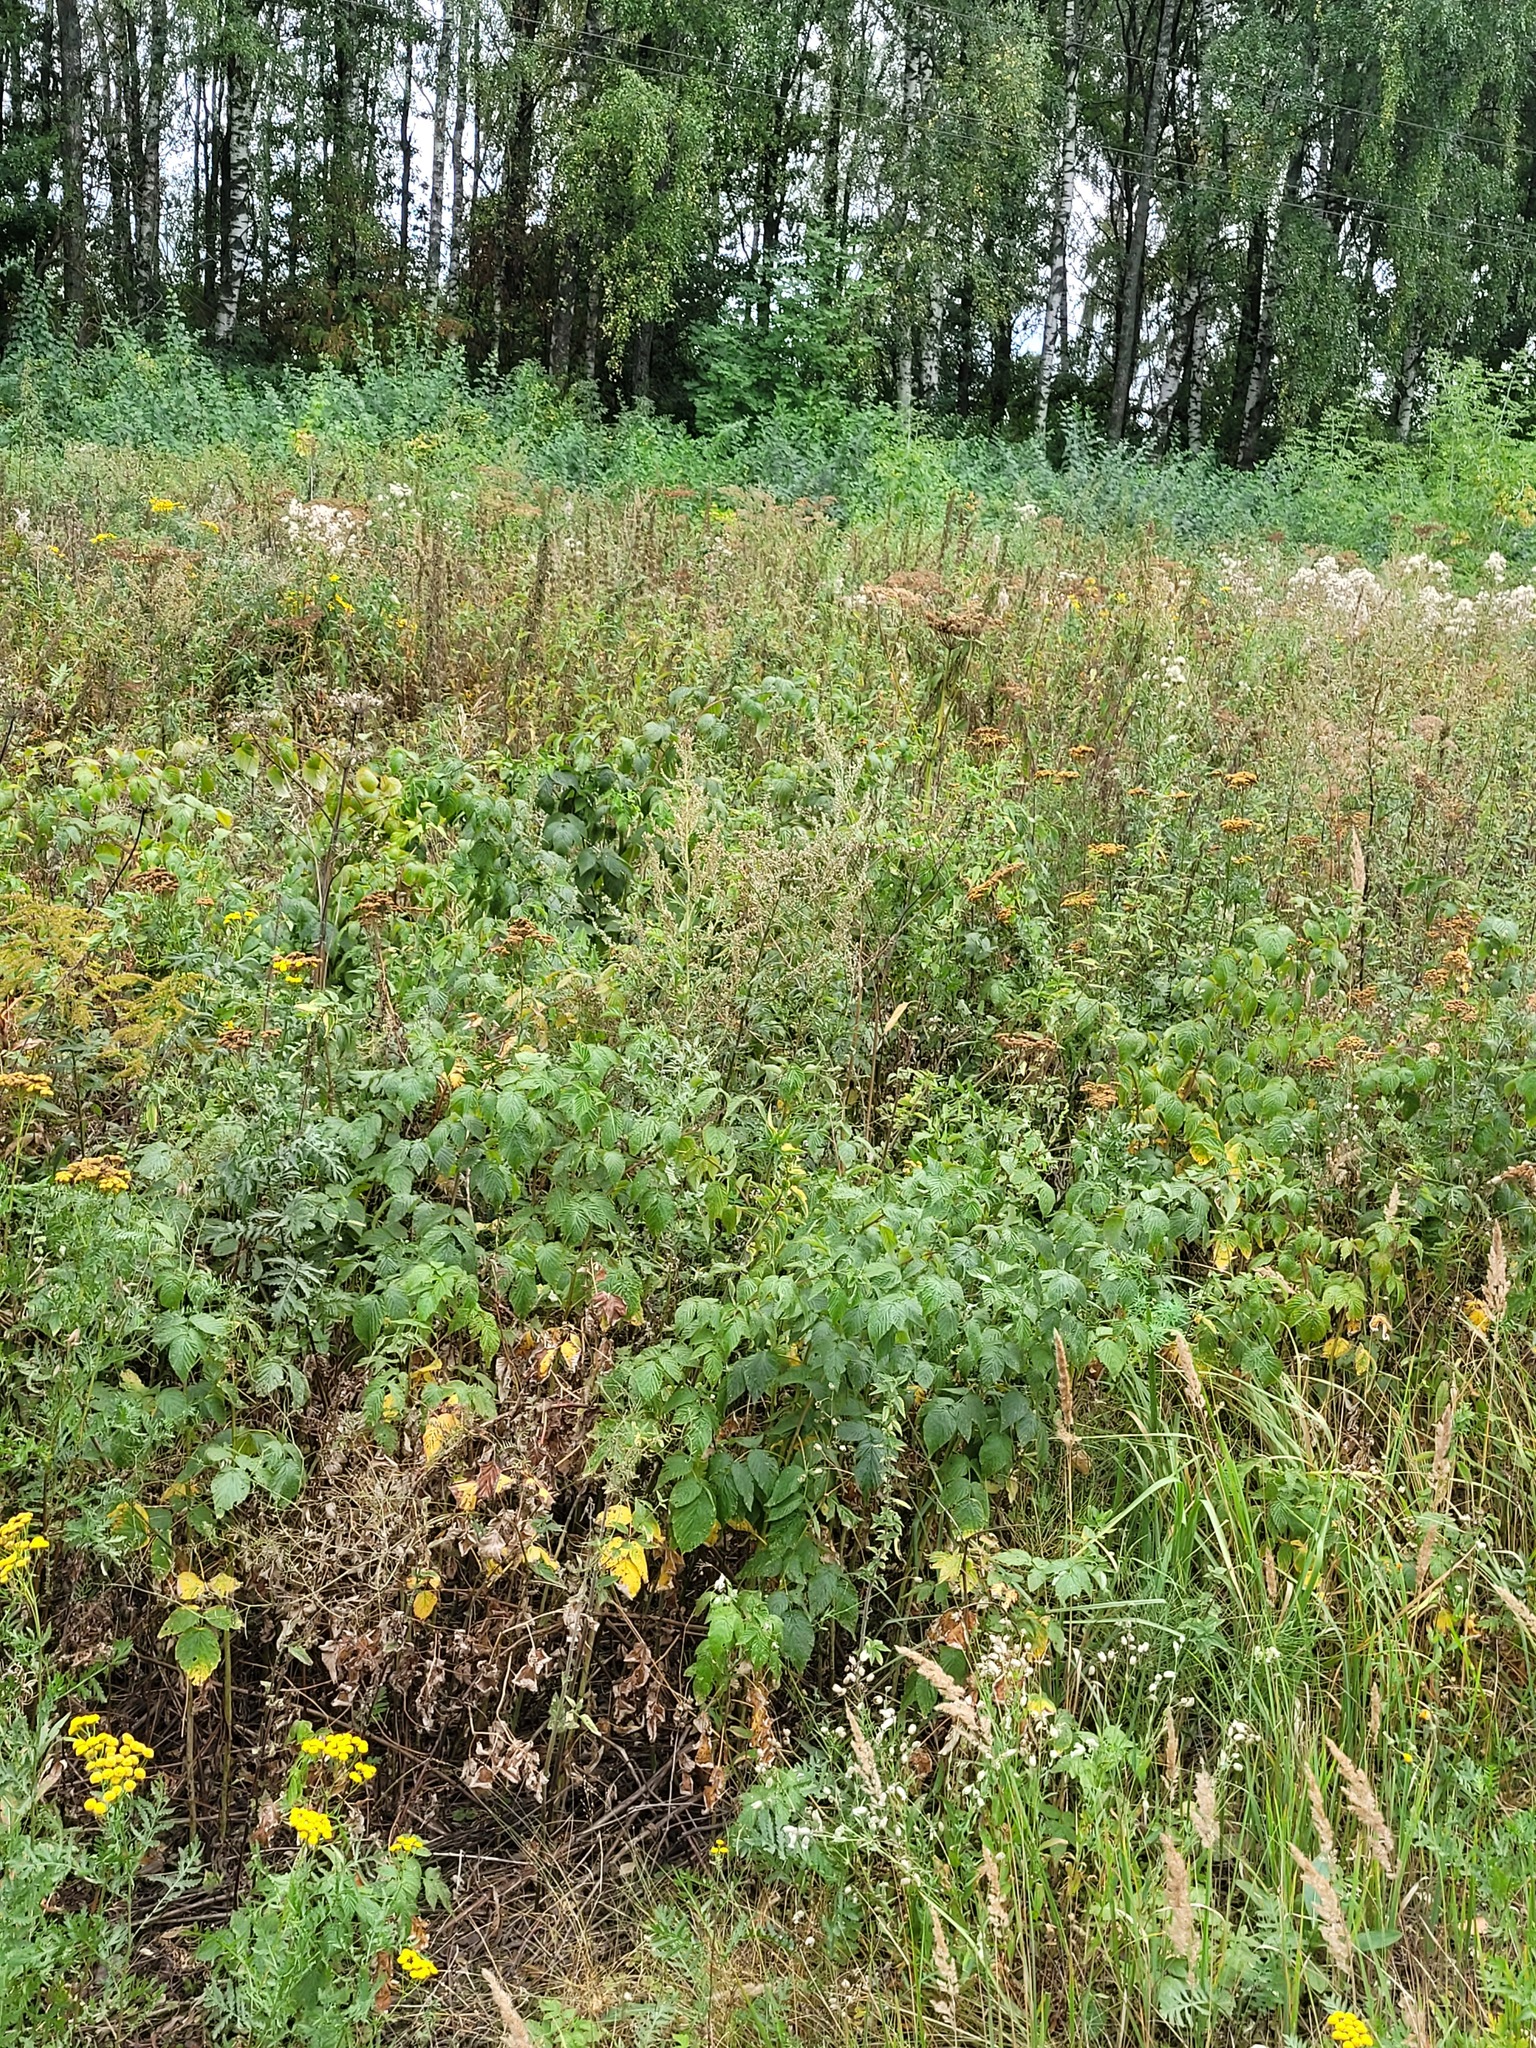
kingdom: Plantae
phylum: Tracheophyta
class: Magnoliopsida
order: Rosales
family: Rosaceae
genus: Rubus
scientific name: Rubus idaeus
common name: Raspberry
